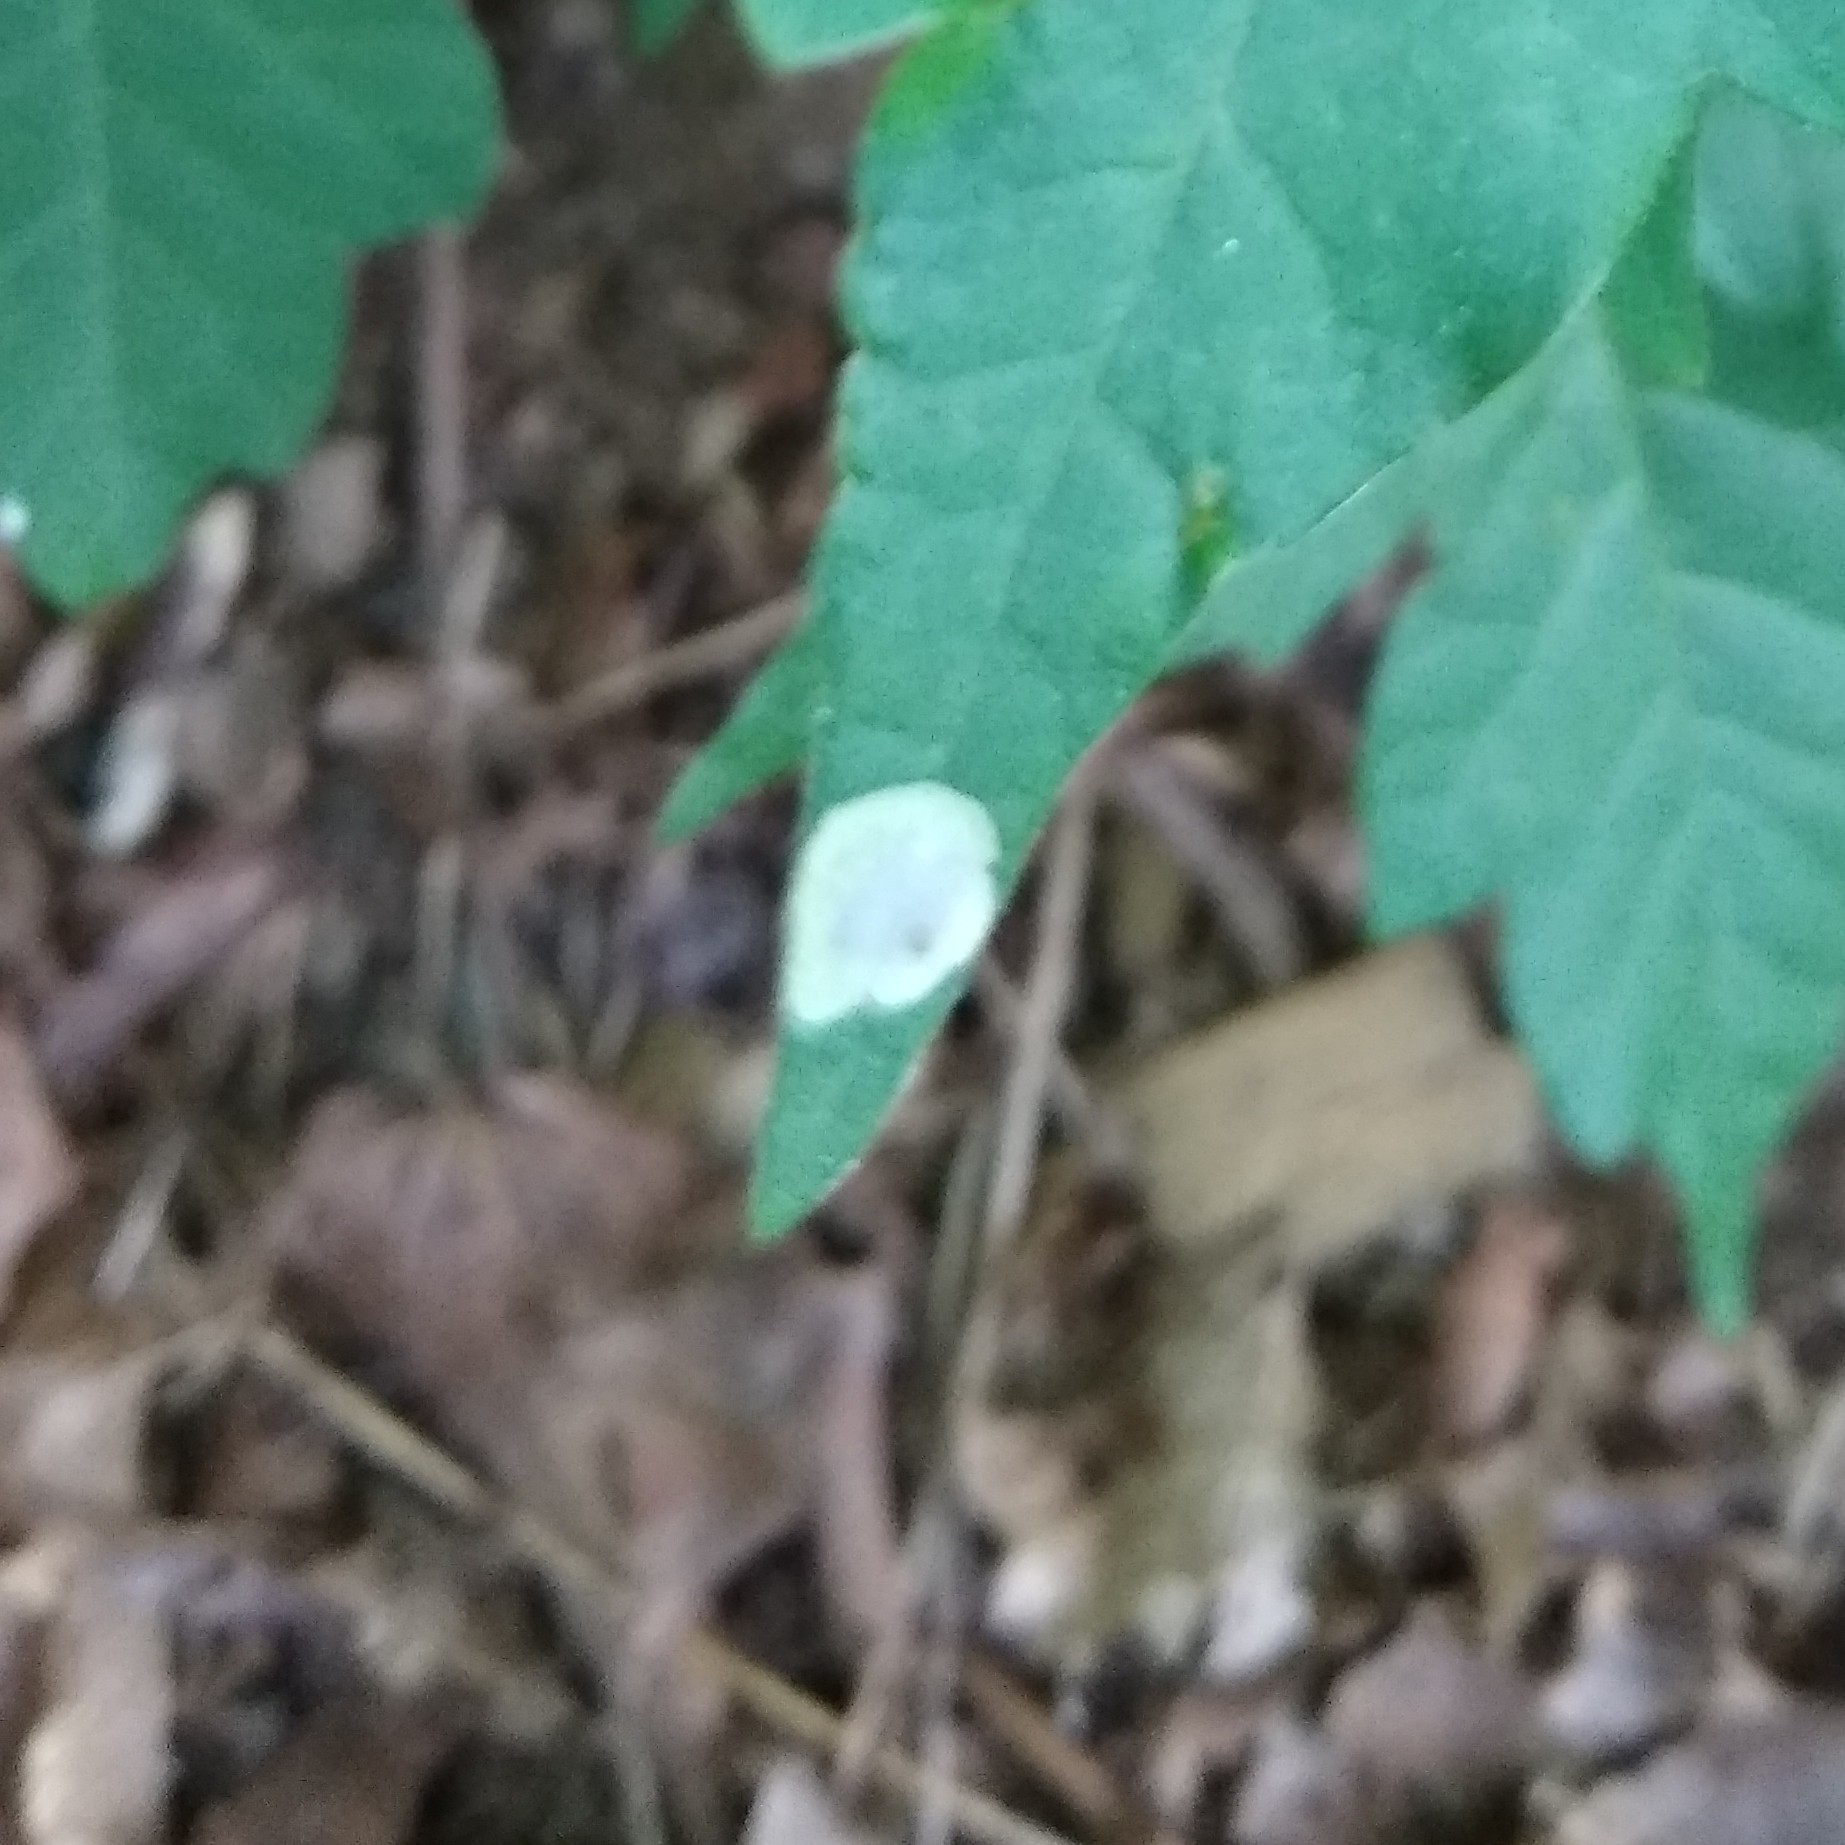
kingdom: Animalia
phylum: Arthropoda
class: Insecta
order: Lepidoptera
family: Gracillariidae
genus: Cameraria
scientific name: Cameraria guttifinitella
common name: Poison ivy leaf-miner moth
